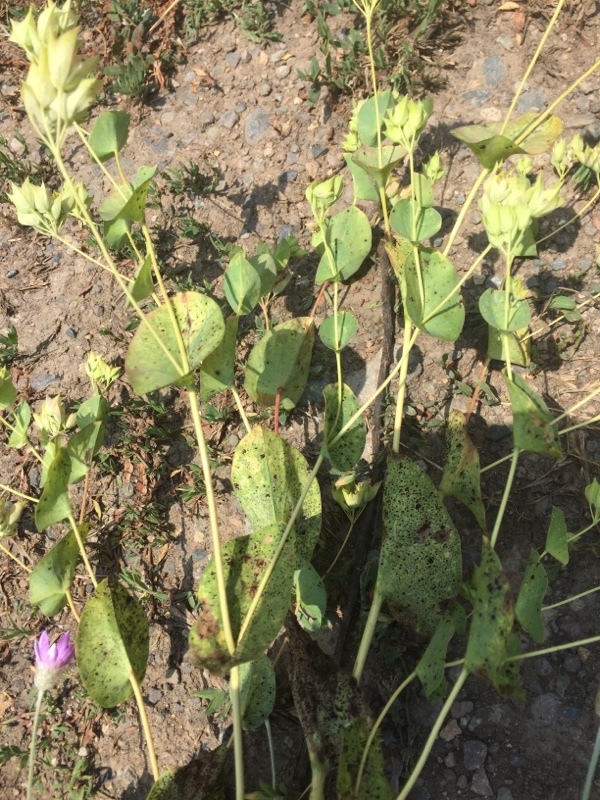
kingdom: Plantae
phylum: Tracheophyta
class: Magnoliopsida
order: Apiales
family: Apiaceae
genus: Bupleurum
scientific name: Bupleurum rotundifolium
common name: Thorow-wax
